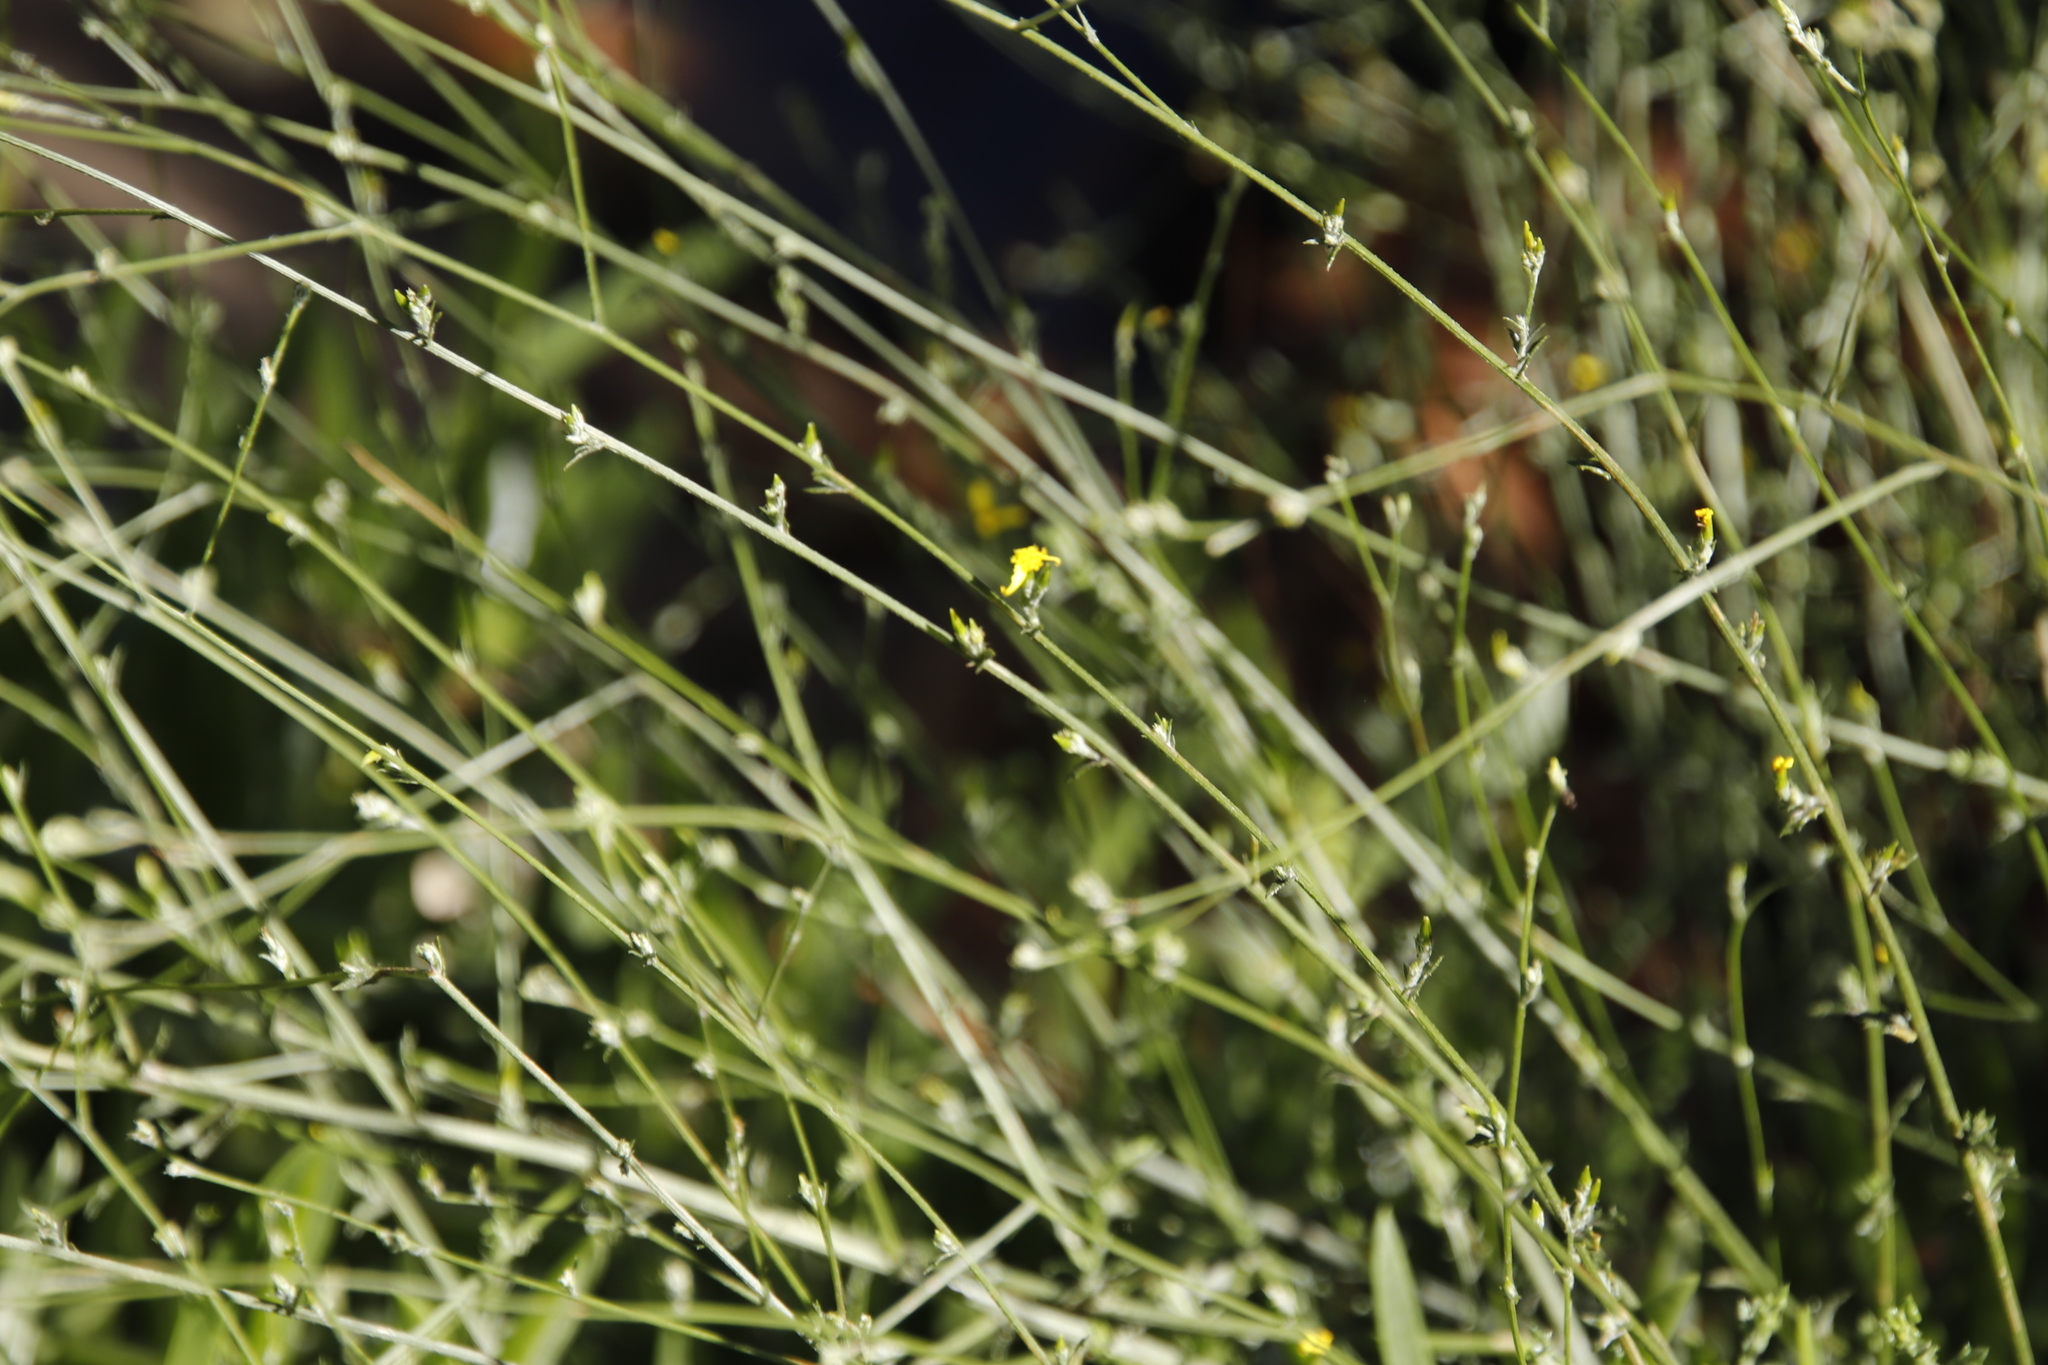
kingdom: Plantae
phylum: Tracheophyta
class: Magnoliopsida
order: Asterales
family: Asteraceae
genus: Senecio
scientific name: Senecio pubigerus
